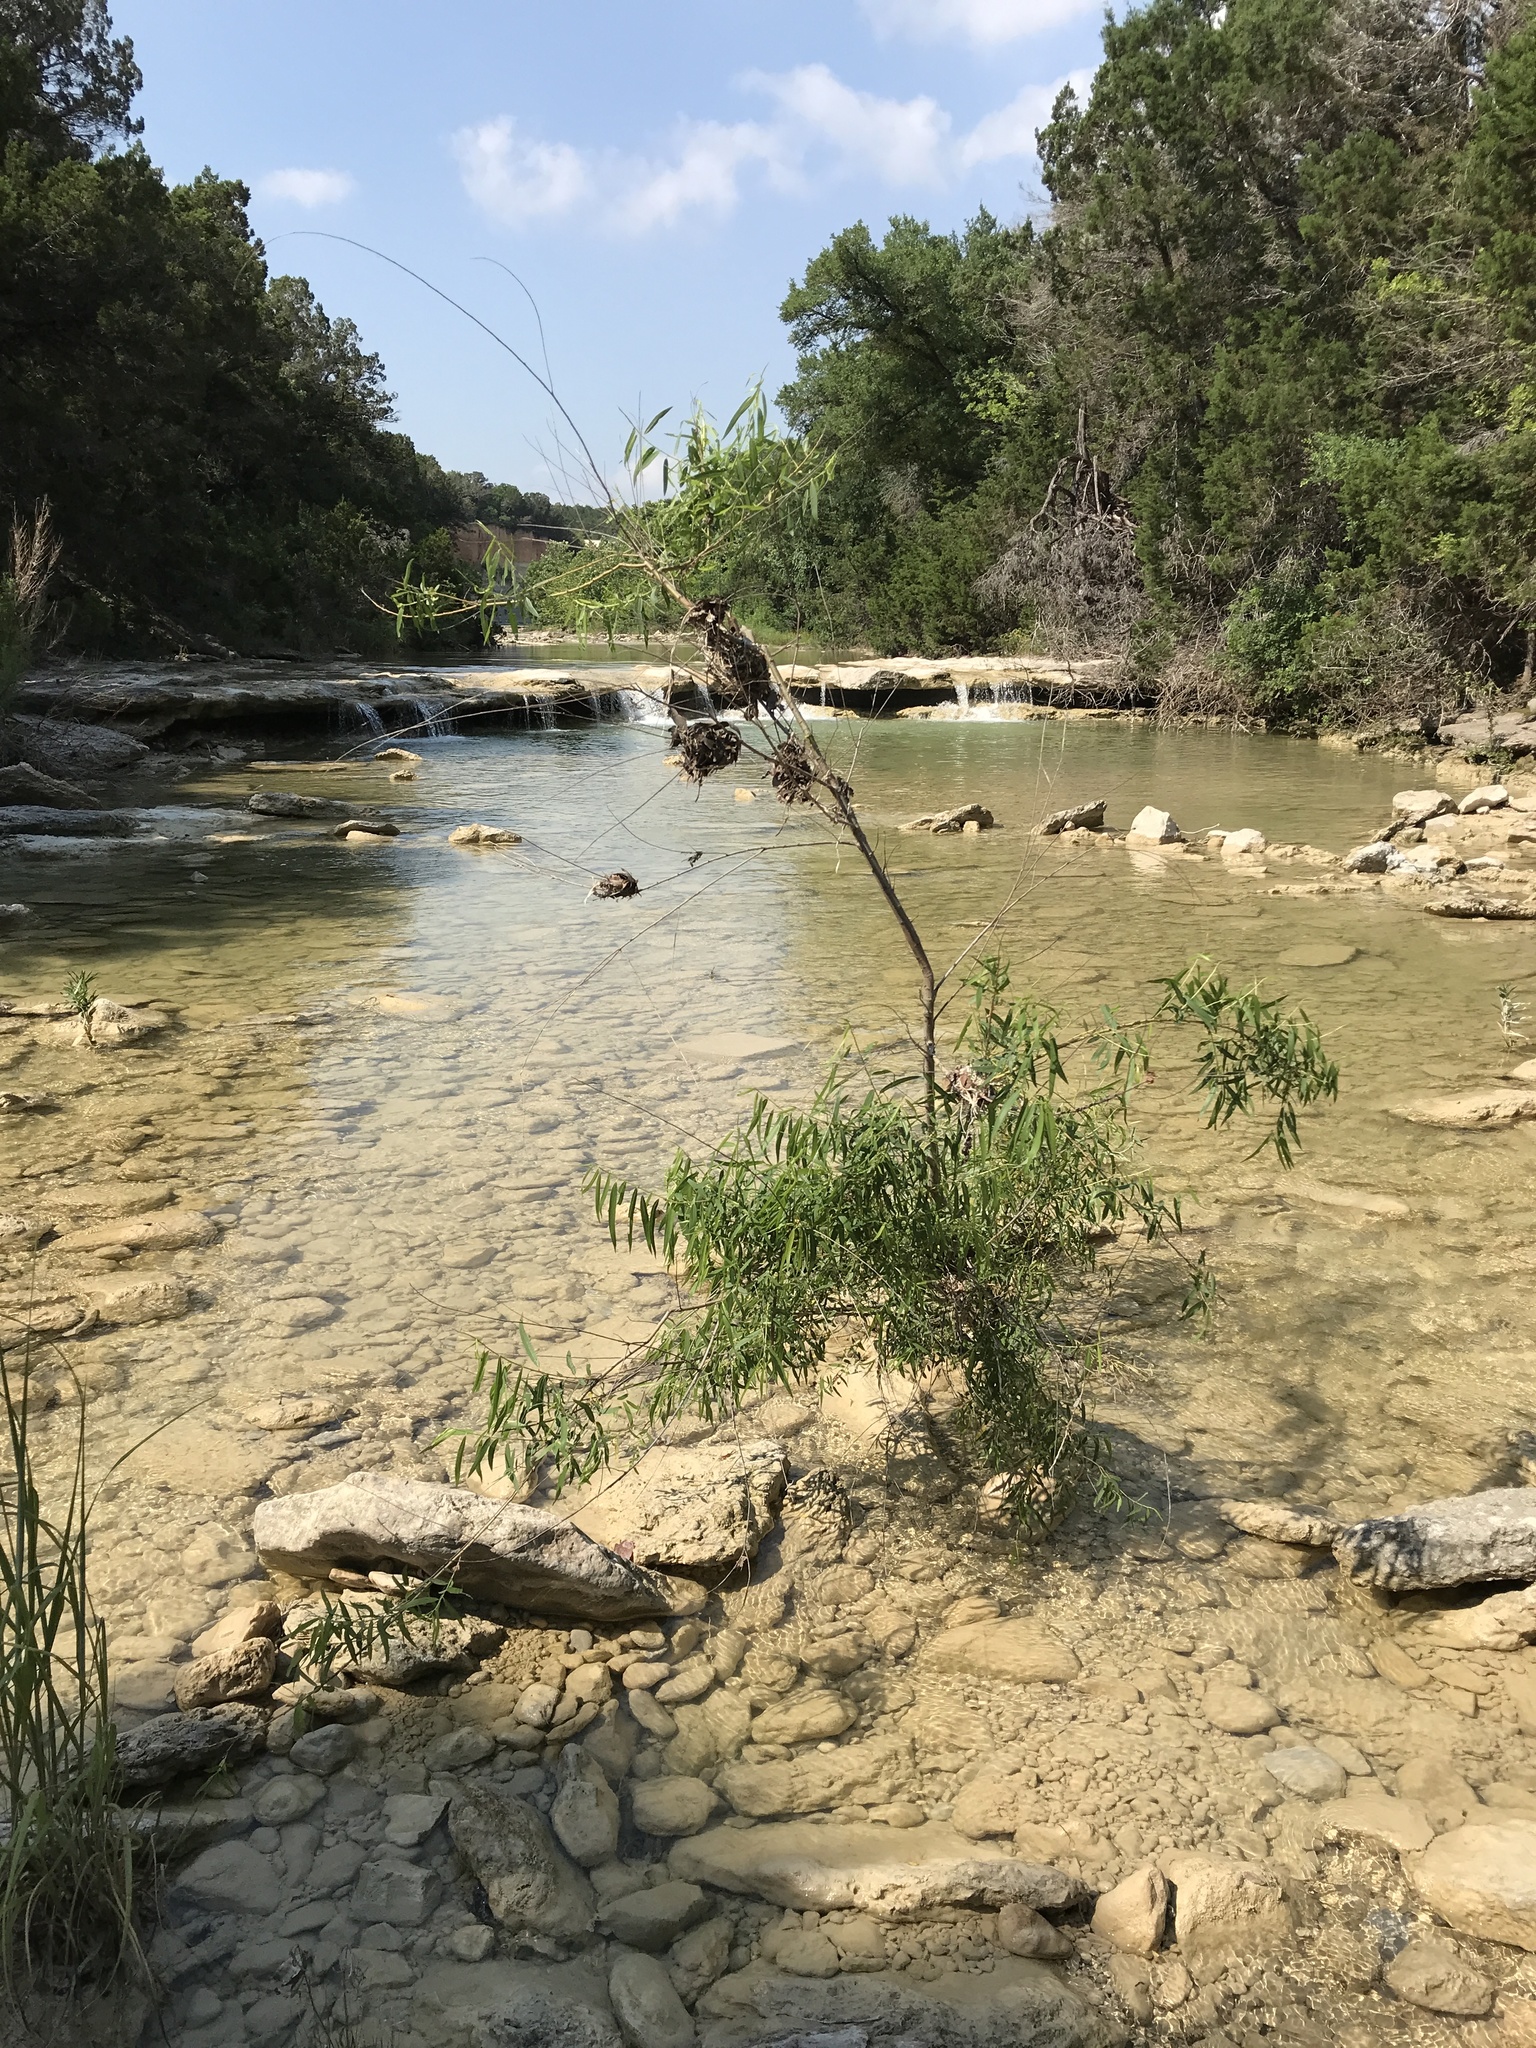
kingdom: Plantae
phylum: Tracheophyta
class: Magnoliopsida
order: Malpighiales
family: Salicaceae
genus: Salix
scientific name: Salix nigra
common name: Black willow
